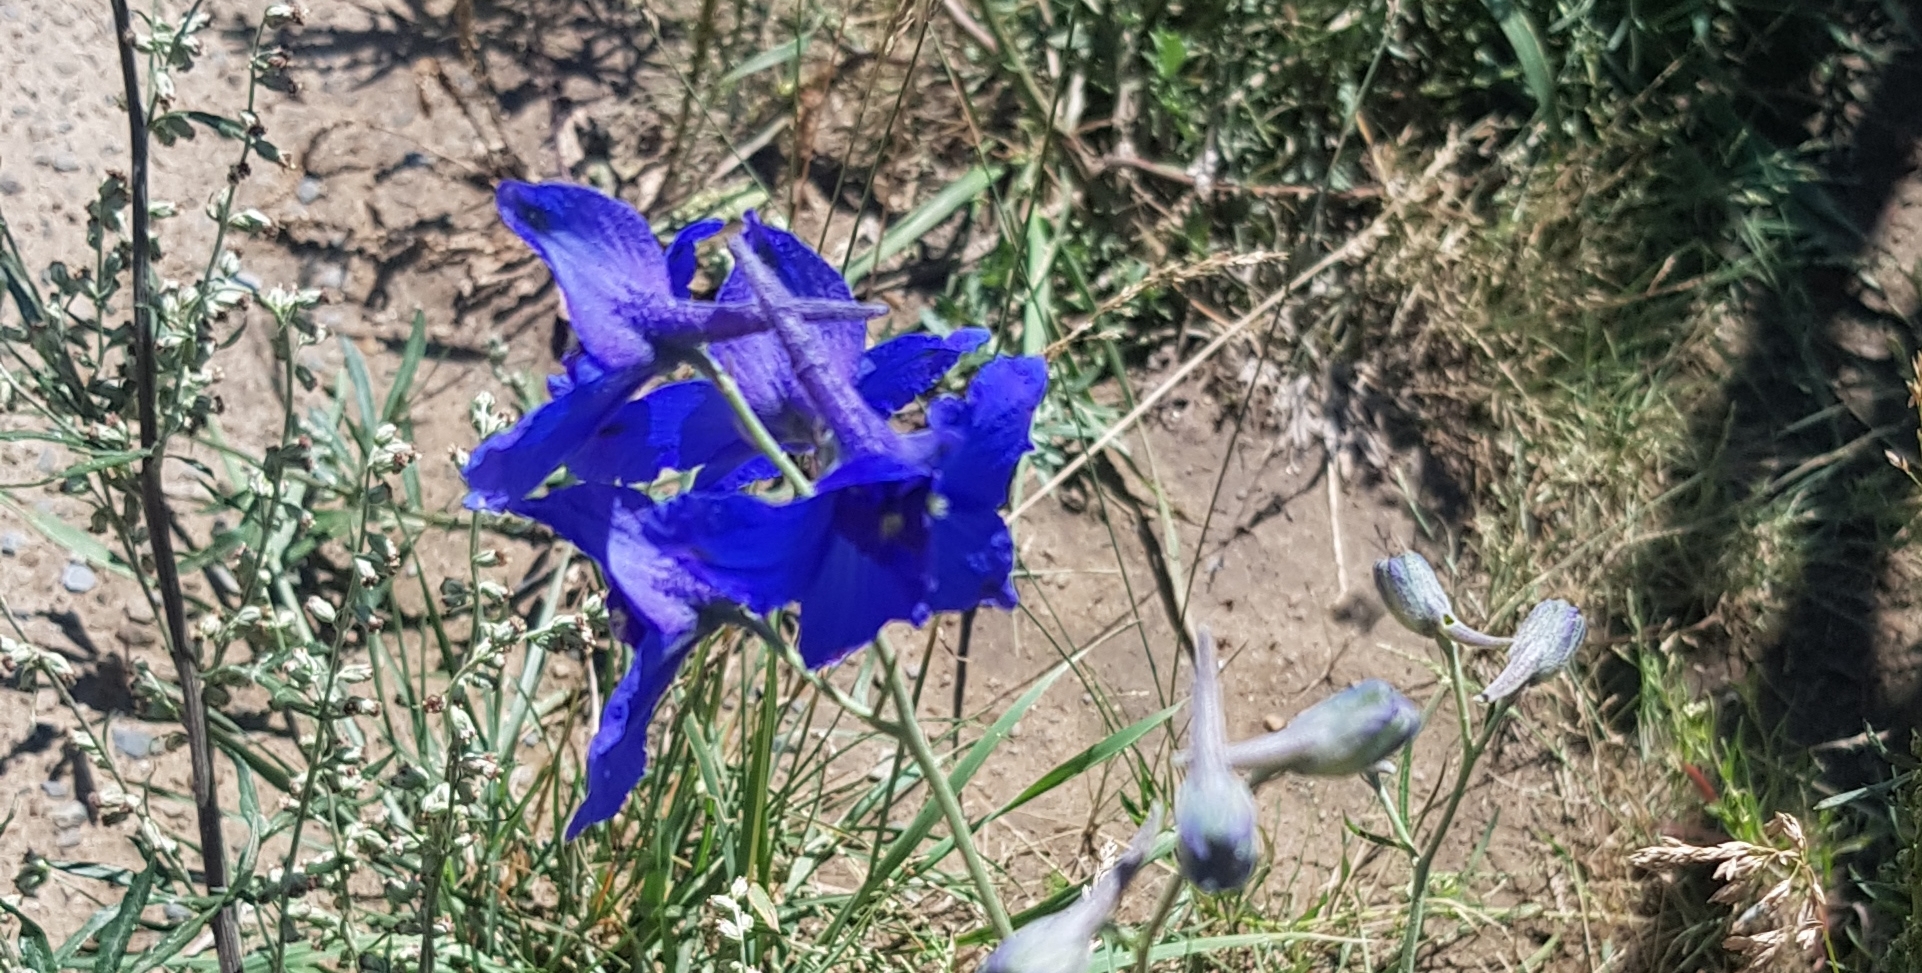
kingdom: Plantae
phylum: Tracheophyta
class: Magnoliopsida
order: Ranunculales
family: Ranunculaceae
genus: Delphinium
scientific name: Delphinium grandiflorum
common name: Siberian larkspur
